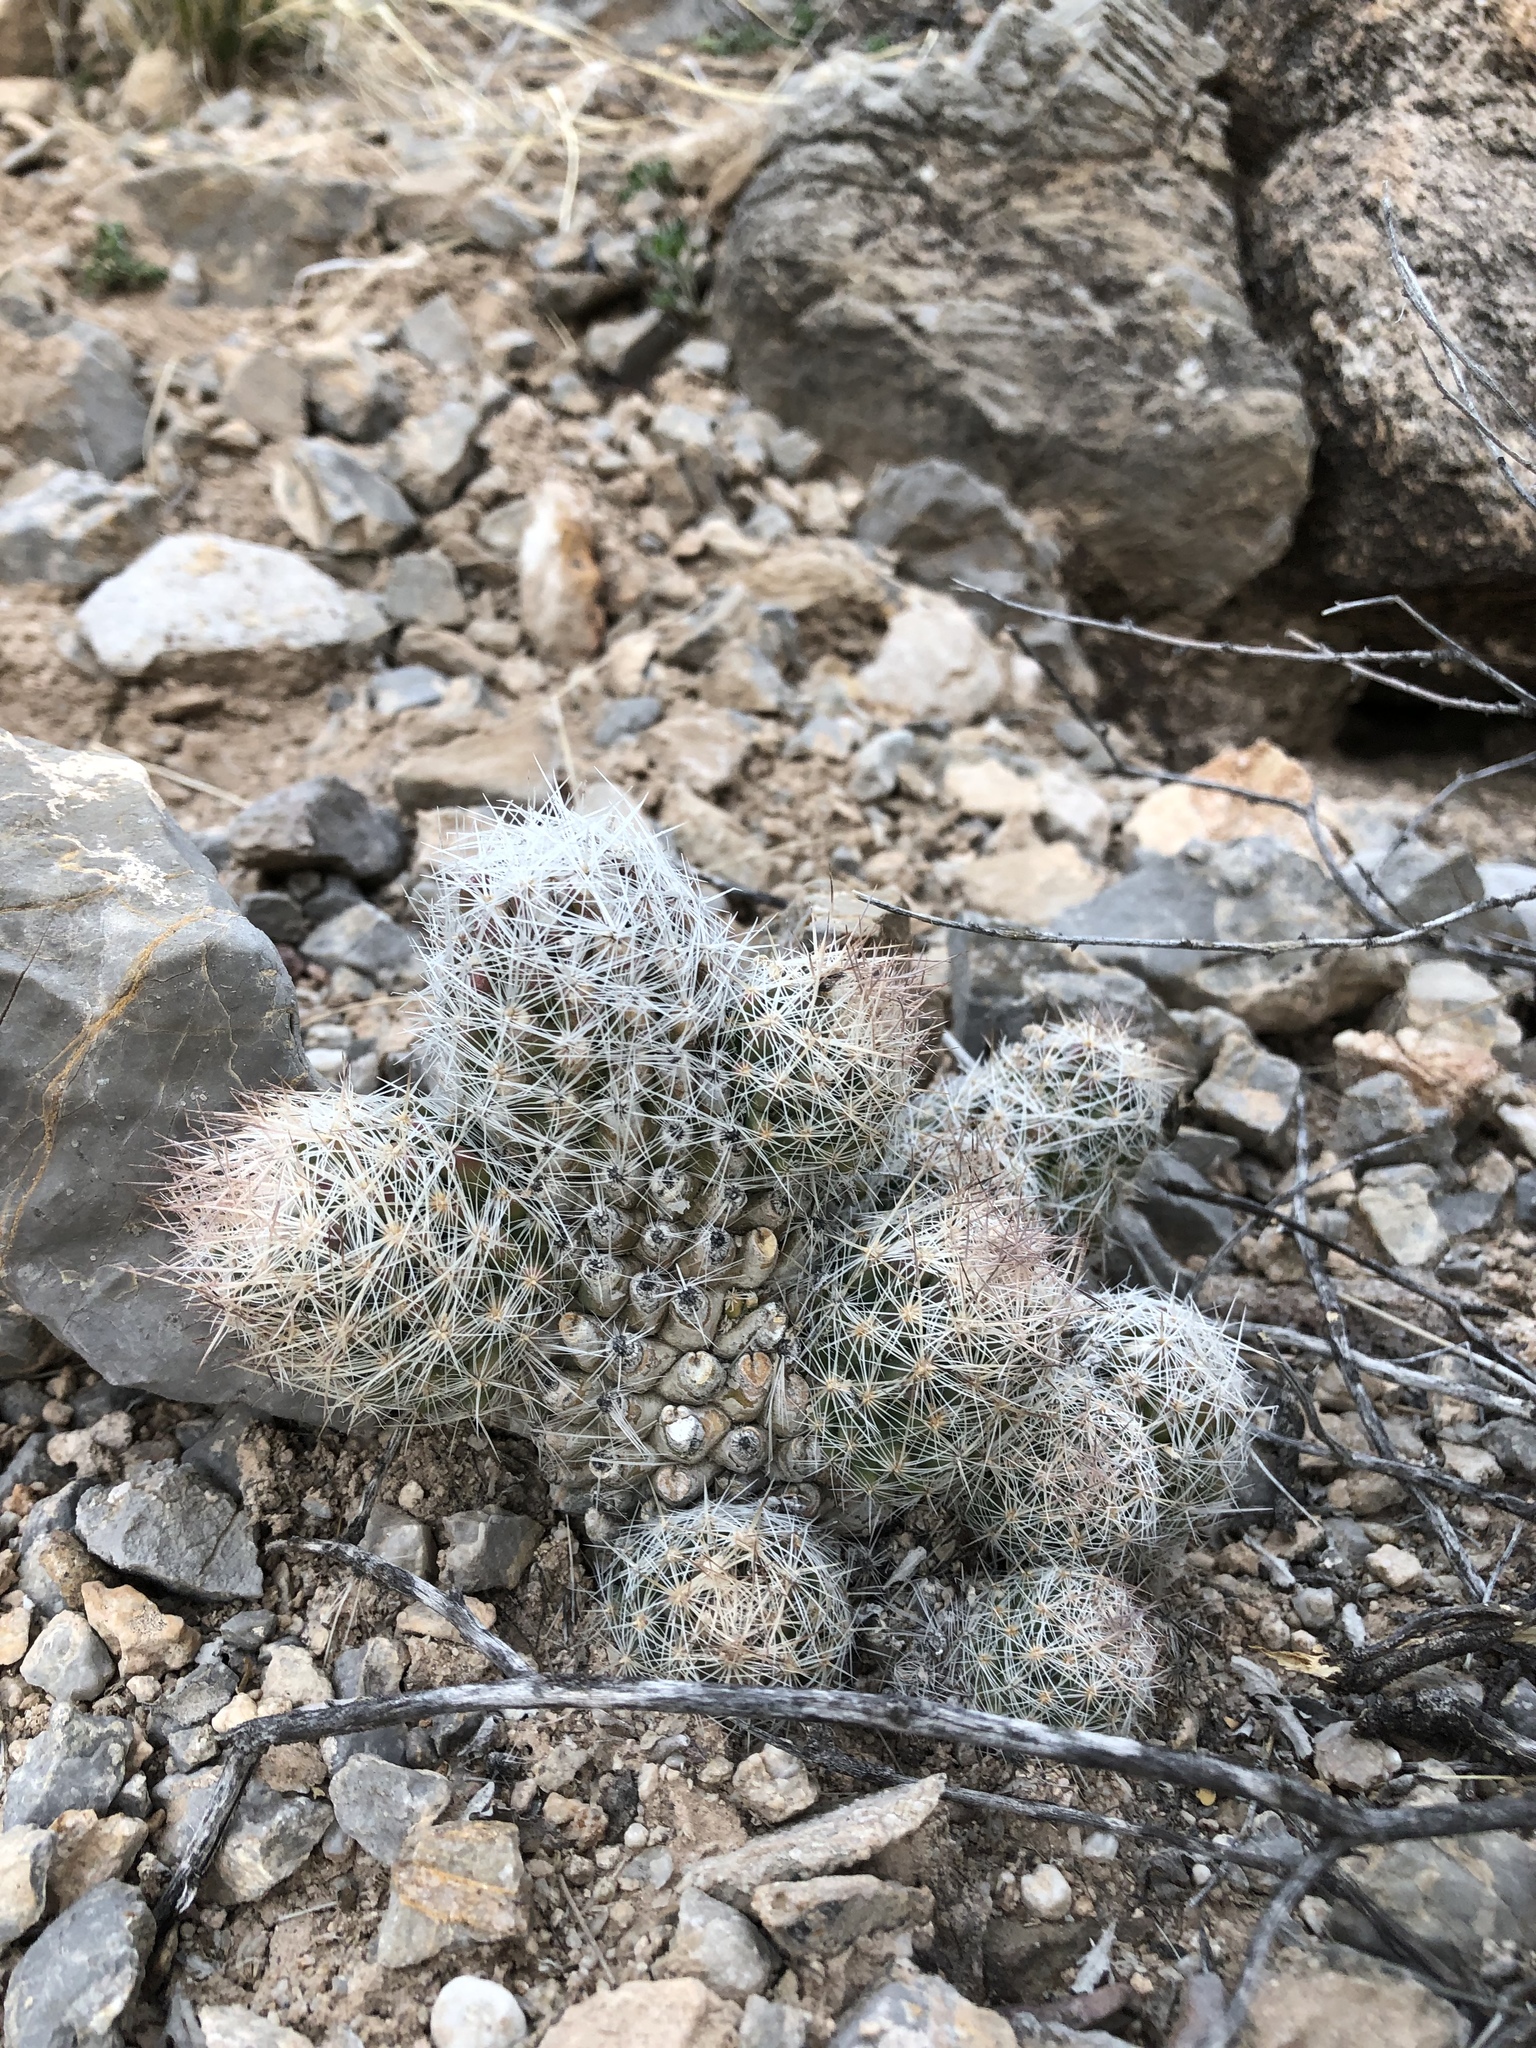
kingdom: Plantae
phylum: Tracheophyta
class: Magnoliopsida
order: Caryophyllales
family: Cactaceae
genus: Pelecyphora
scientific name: Pelecyphora tuberculosa
